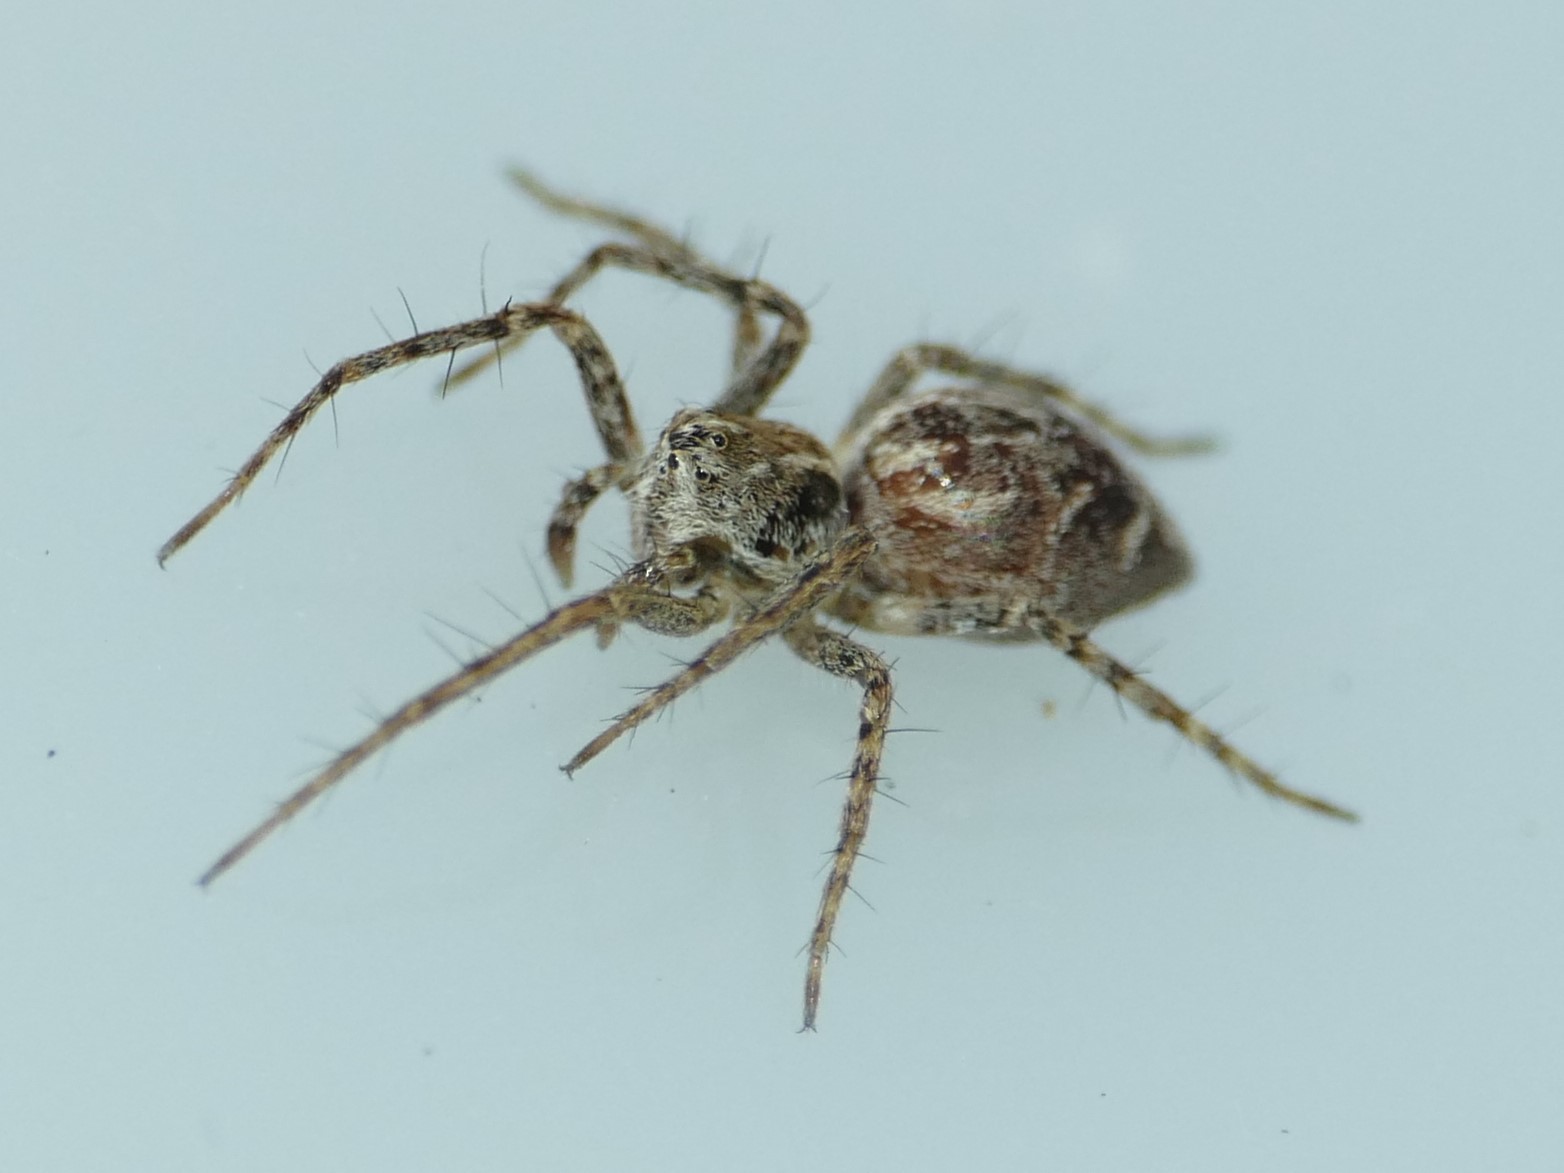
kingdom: Animalia
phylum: Arthropoda
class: Arachnida
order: Araneae
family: Oxyopidae
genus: Oxyopes
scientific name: Oxyopes heterophthalmus
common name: Lynx spider
